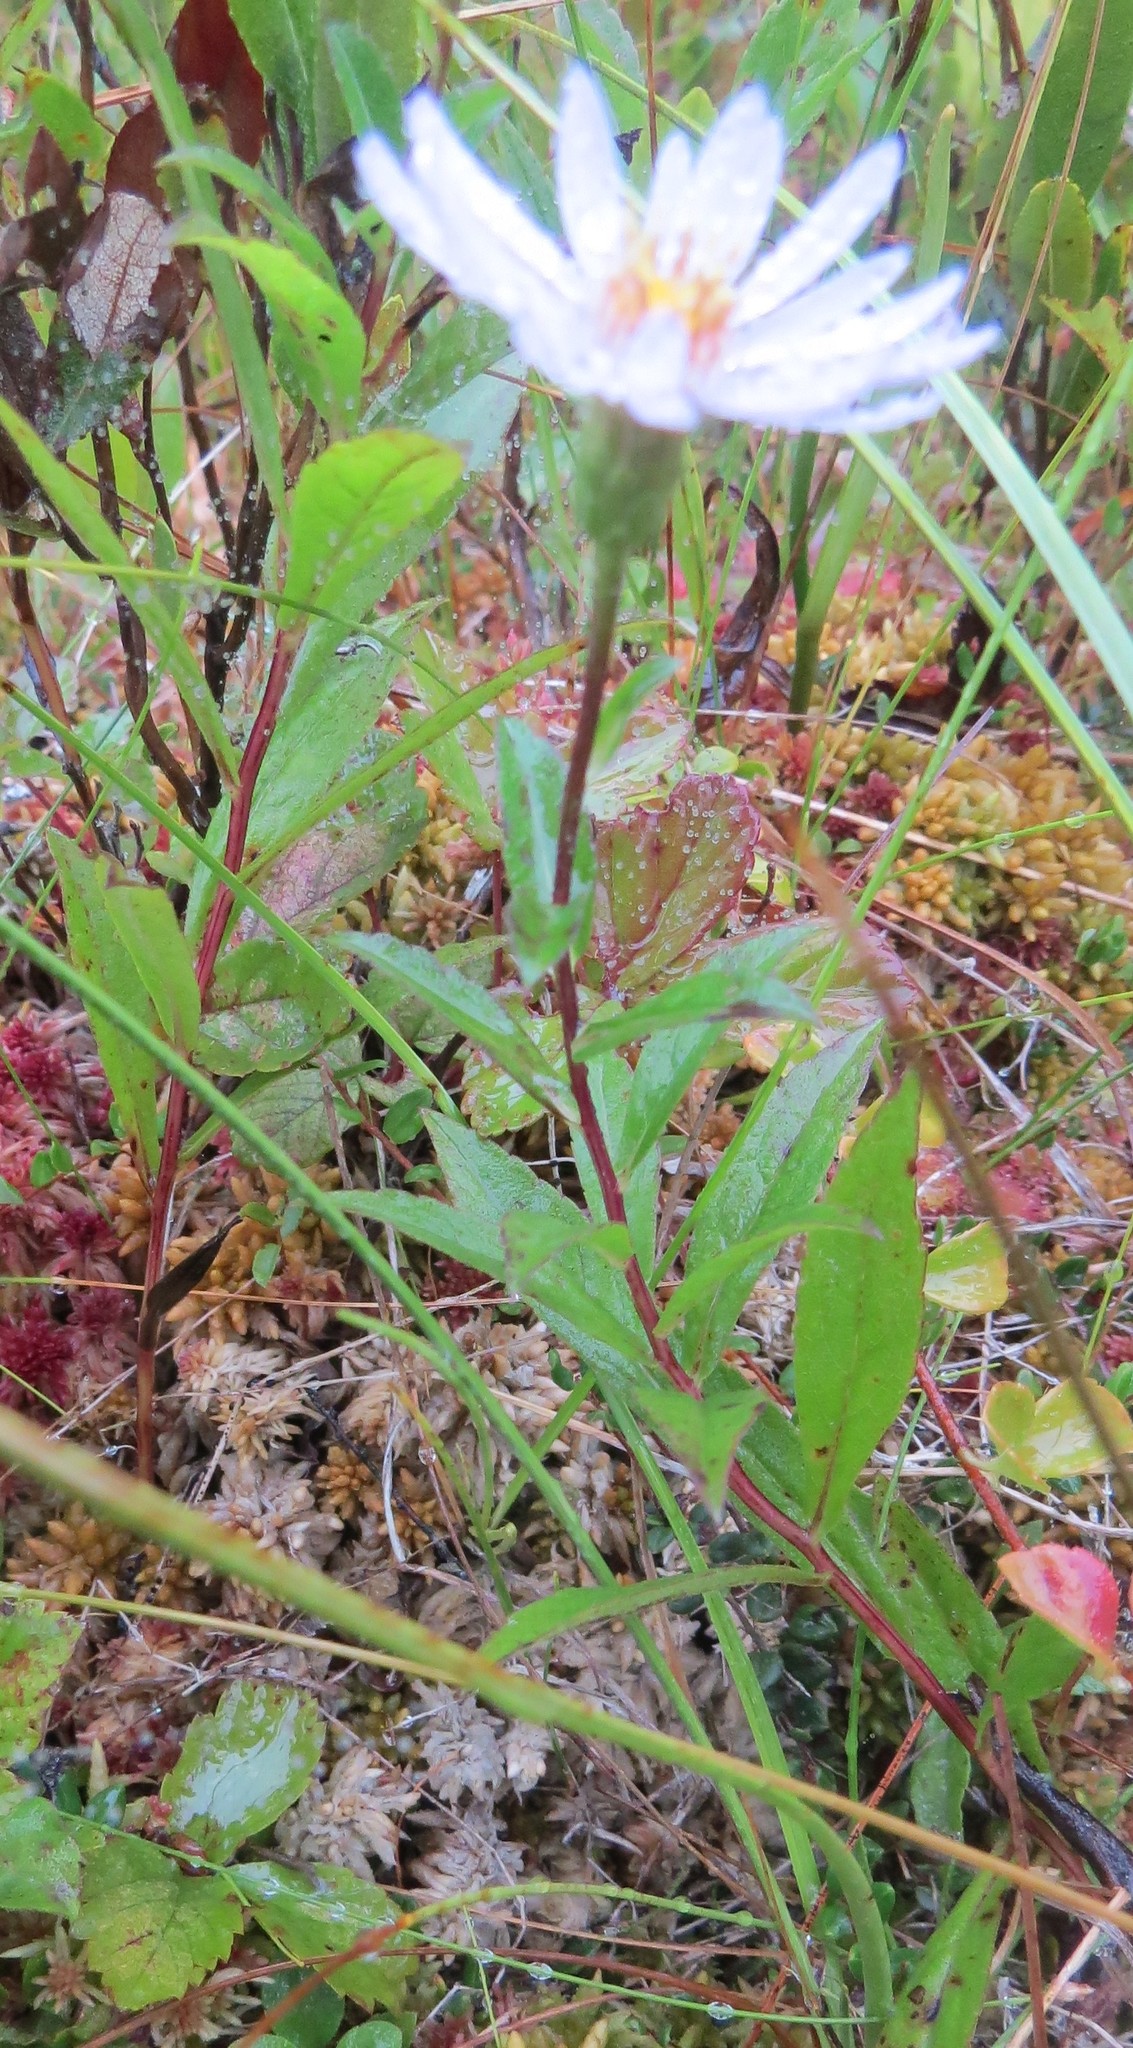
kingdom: Plantae
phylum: Tracheophyta
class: Magnoliopsida
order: Asterales
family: Asteraceae
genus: Eurybia
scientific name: Eurybia radula
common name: Low rough aster
